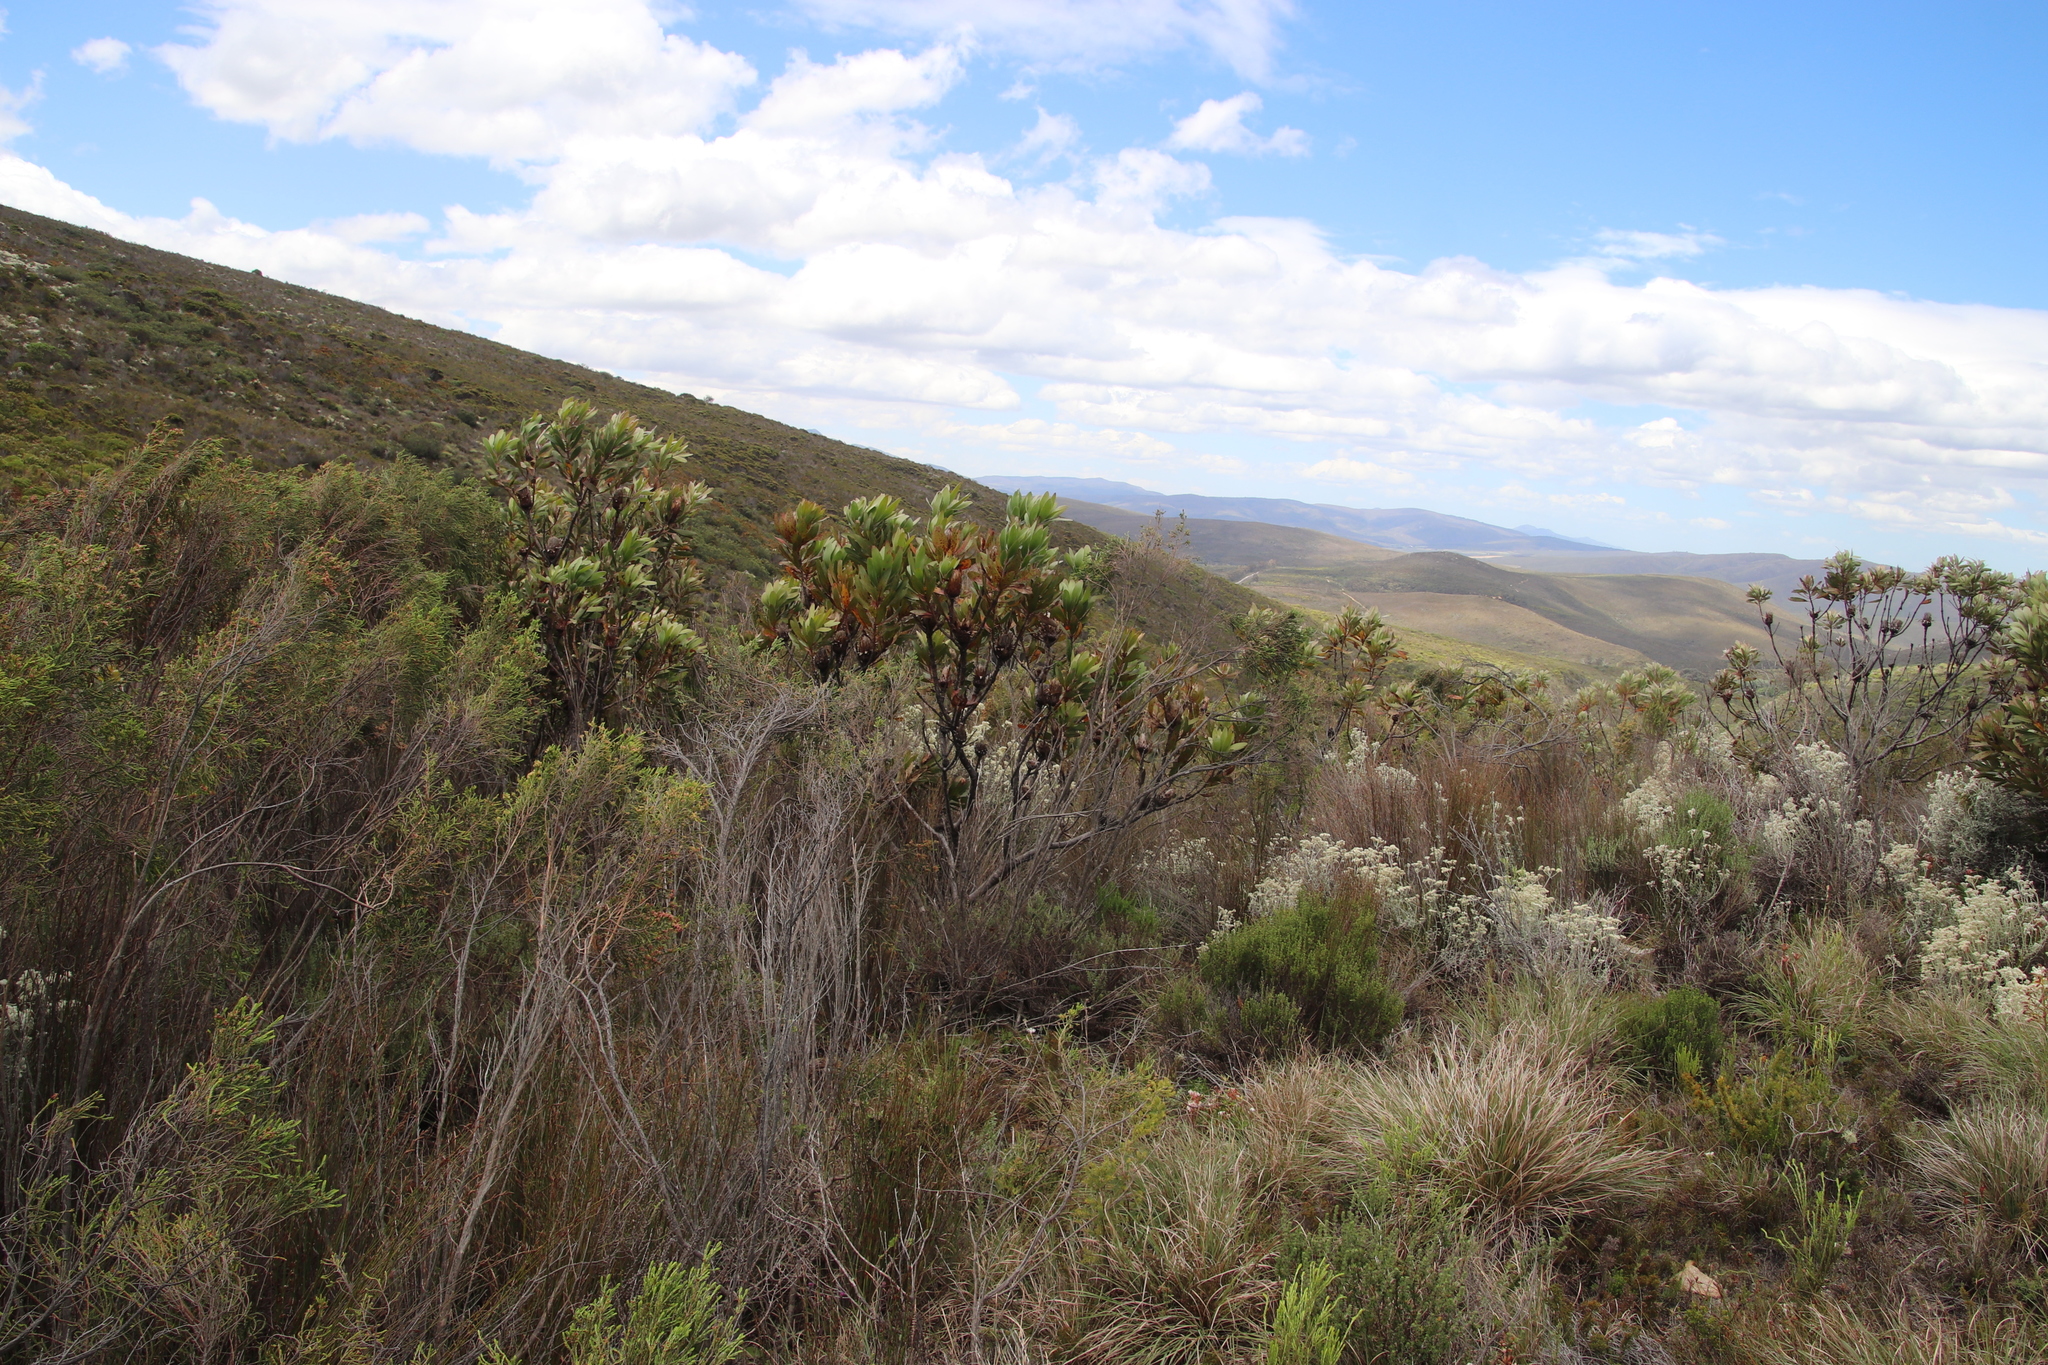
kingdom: Plantae
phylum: Tracheophyta
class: Magnoliopsida
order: Proteales
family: Proteaceae
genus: Protea
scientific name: Protea obtusifolia
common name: Bredasdorp sugarbush
